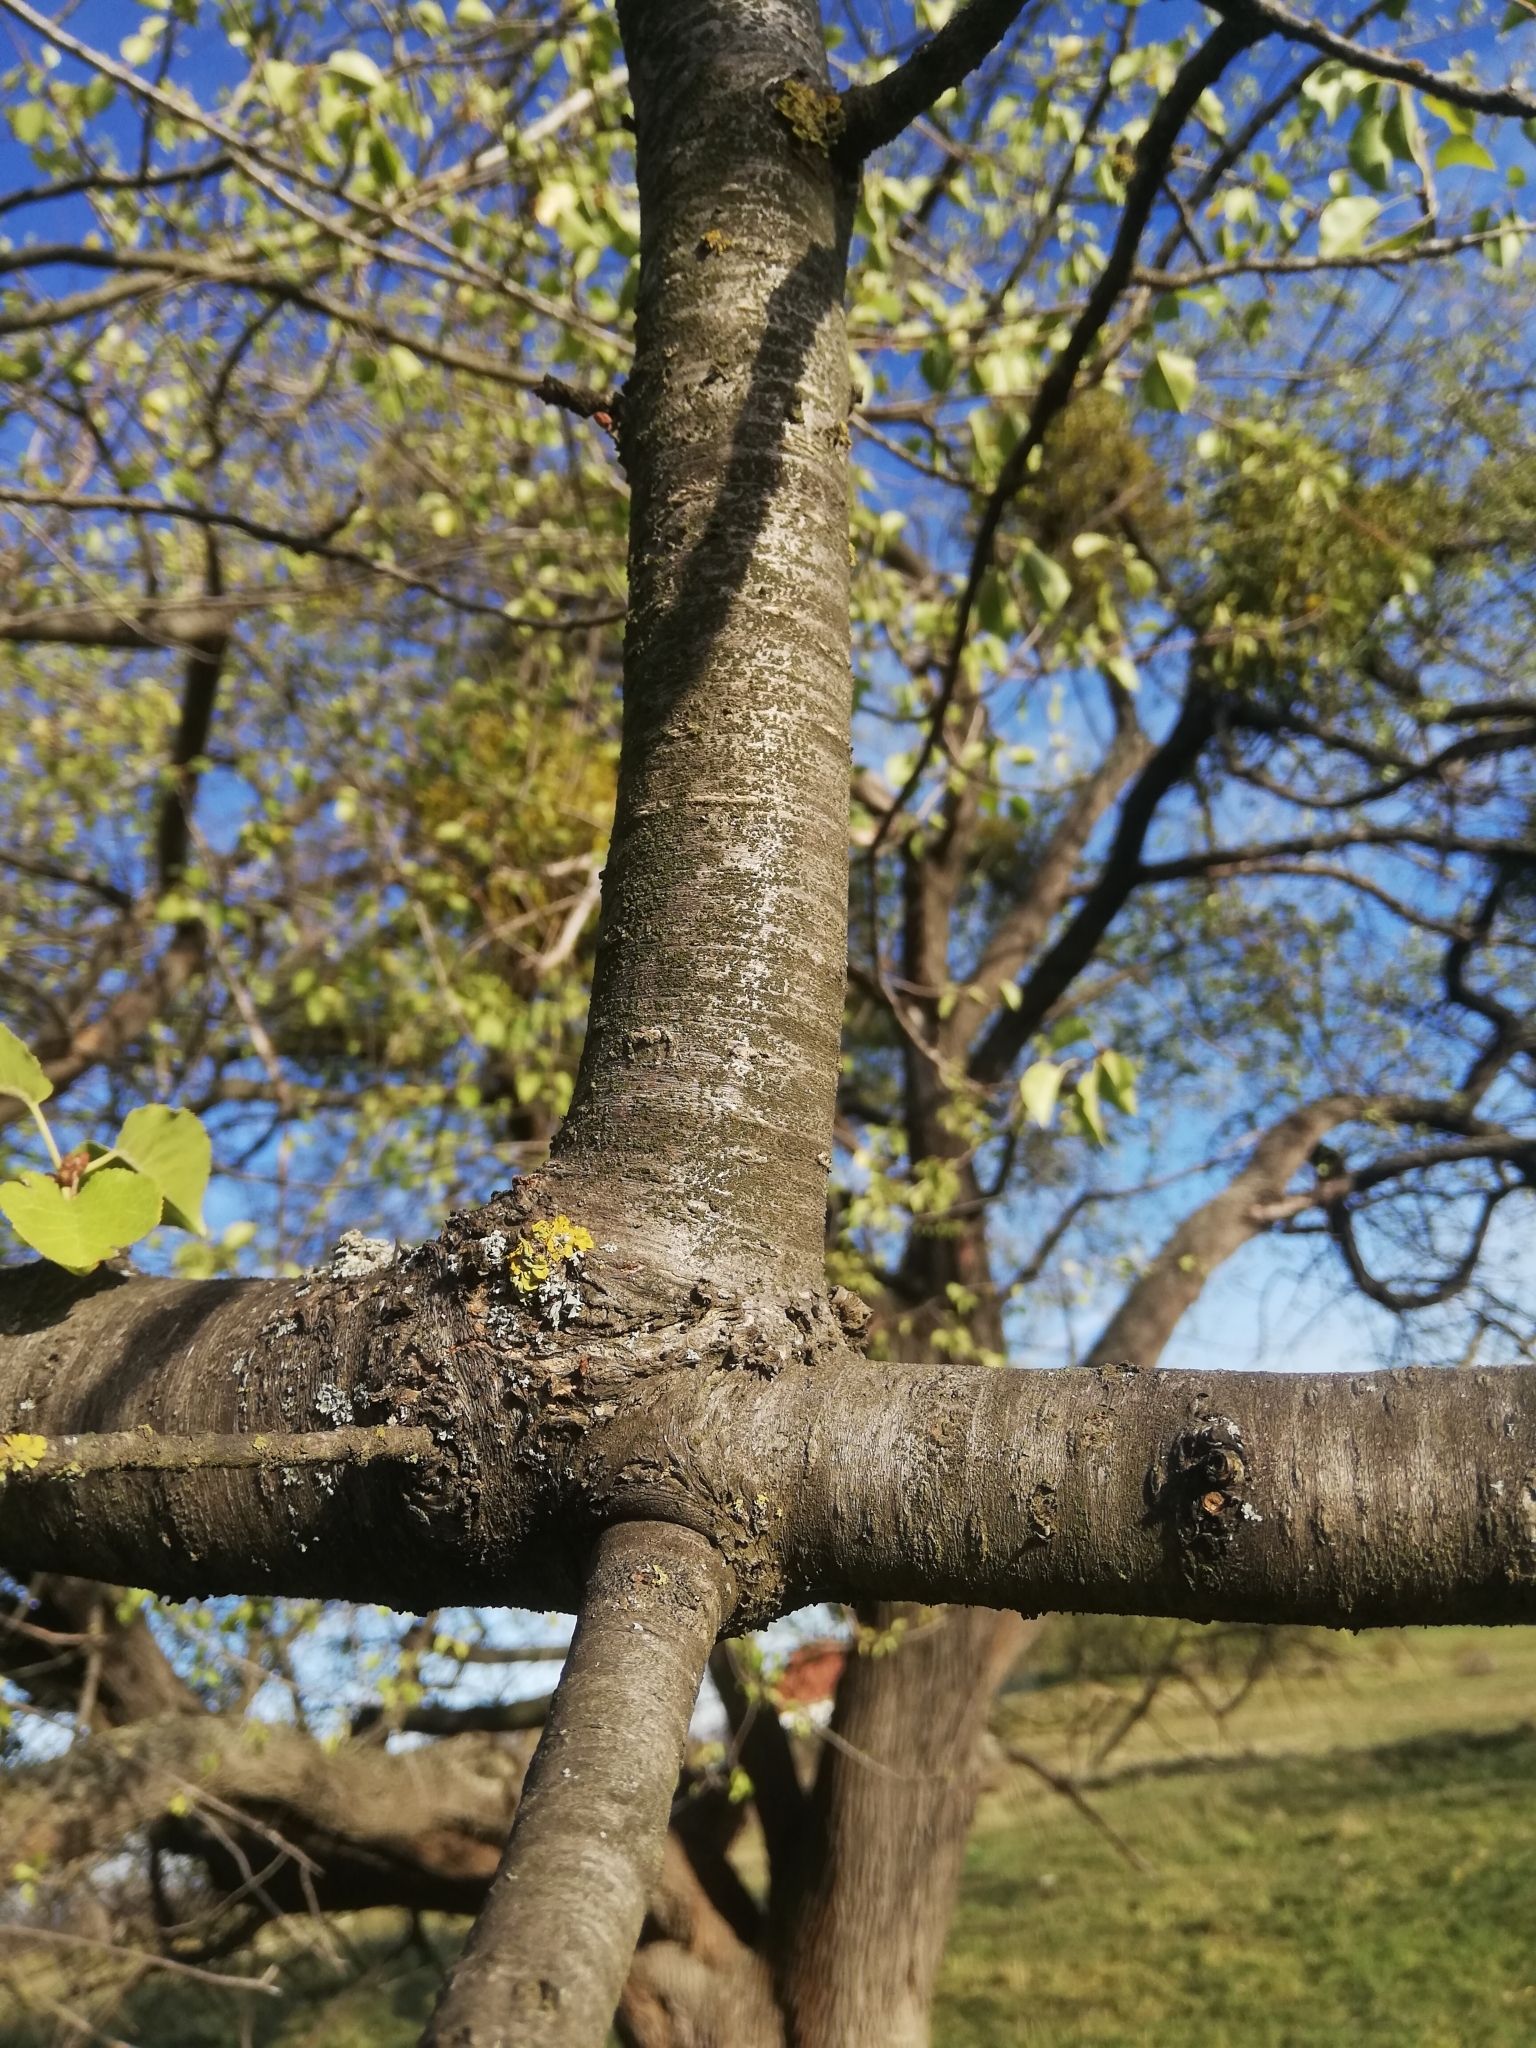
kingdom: Plantae
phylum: Tracheophyta
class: Magnoliopsida
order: Rosales
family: Rosaceae
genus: Prunus
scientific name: Prunus mahaleb
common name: Mahaleb cherry
